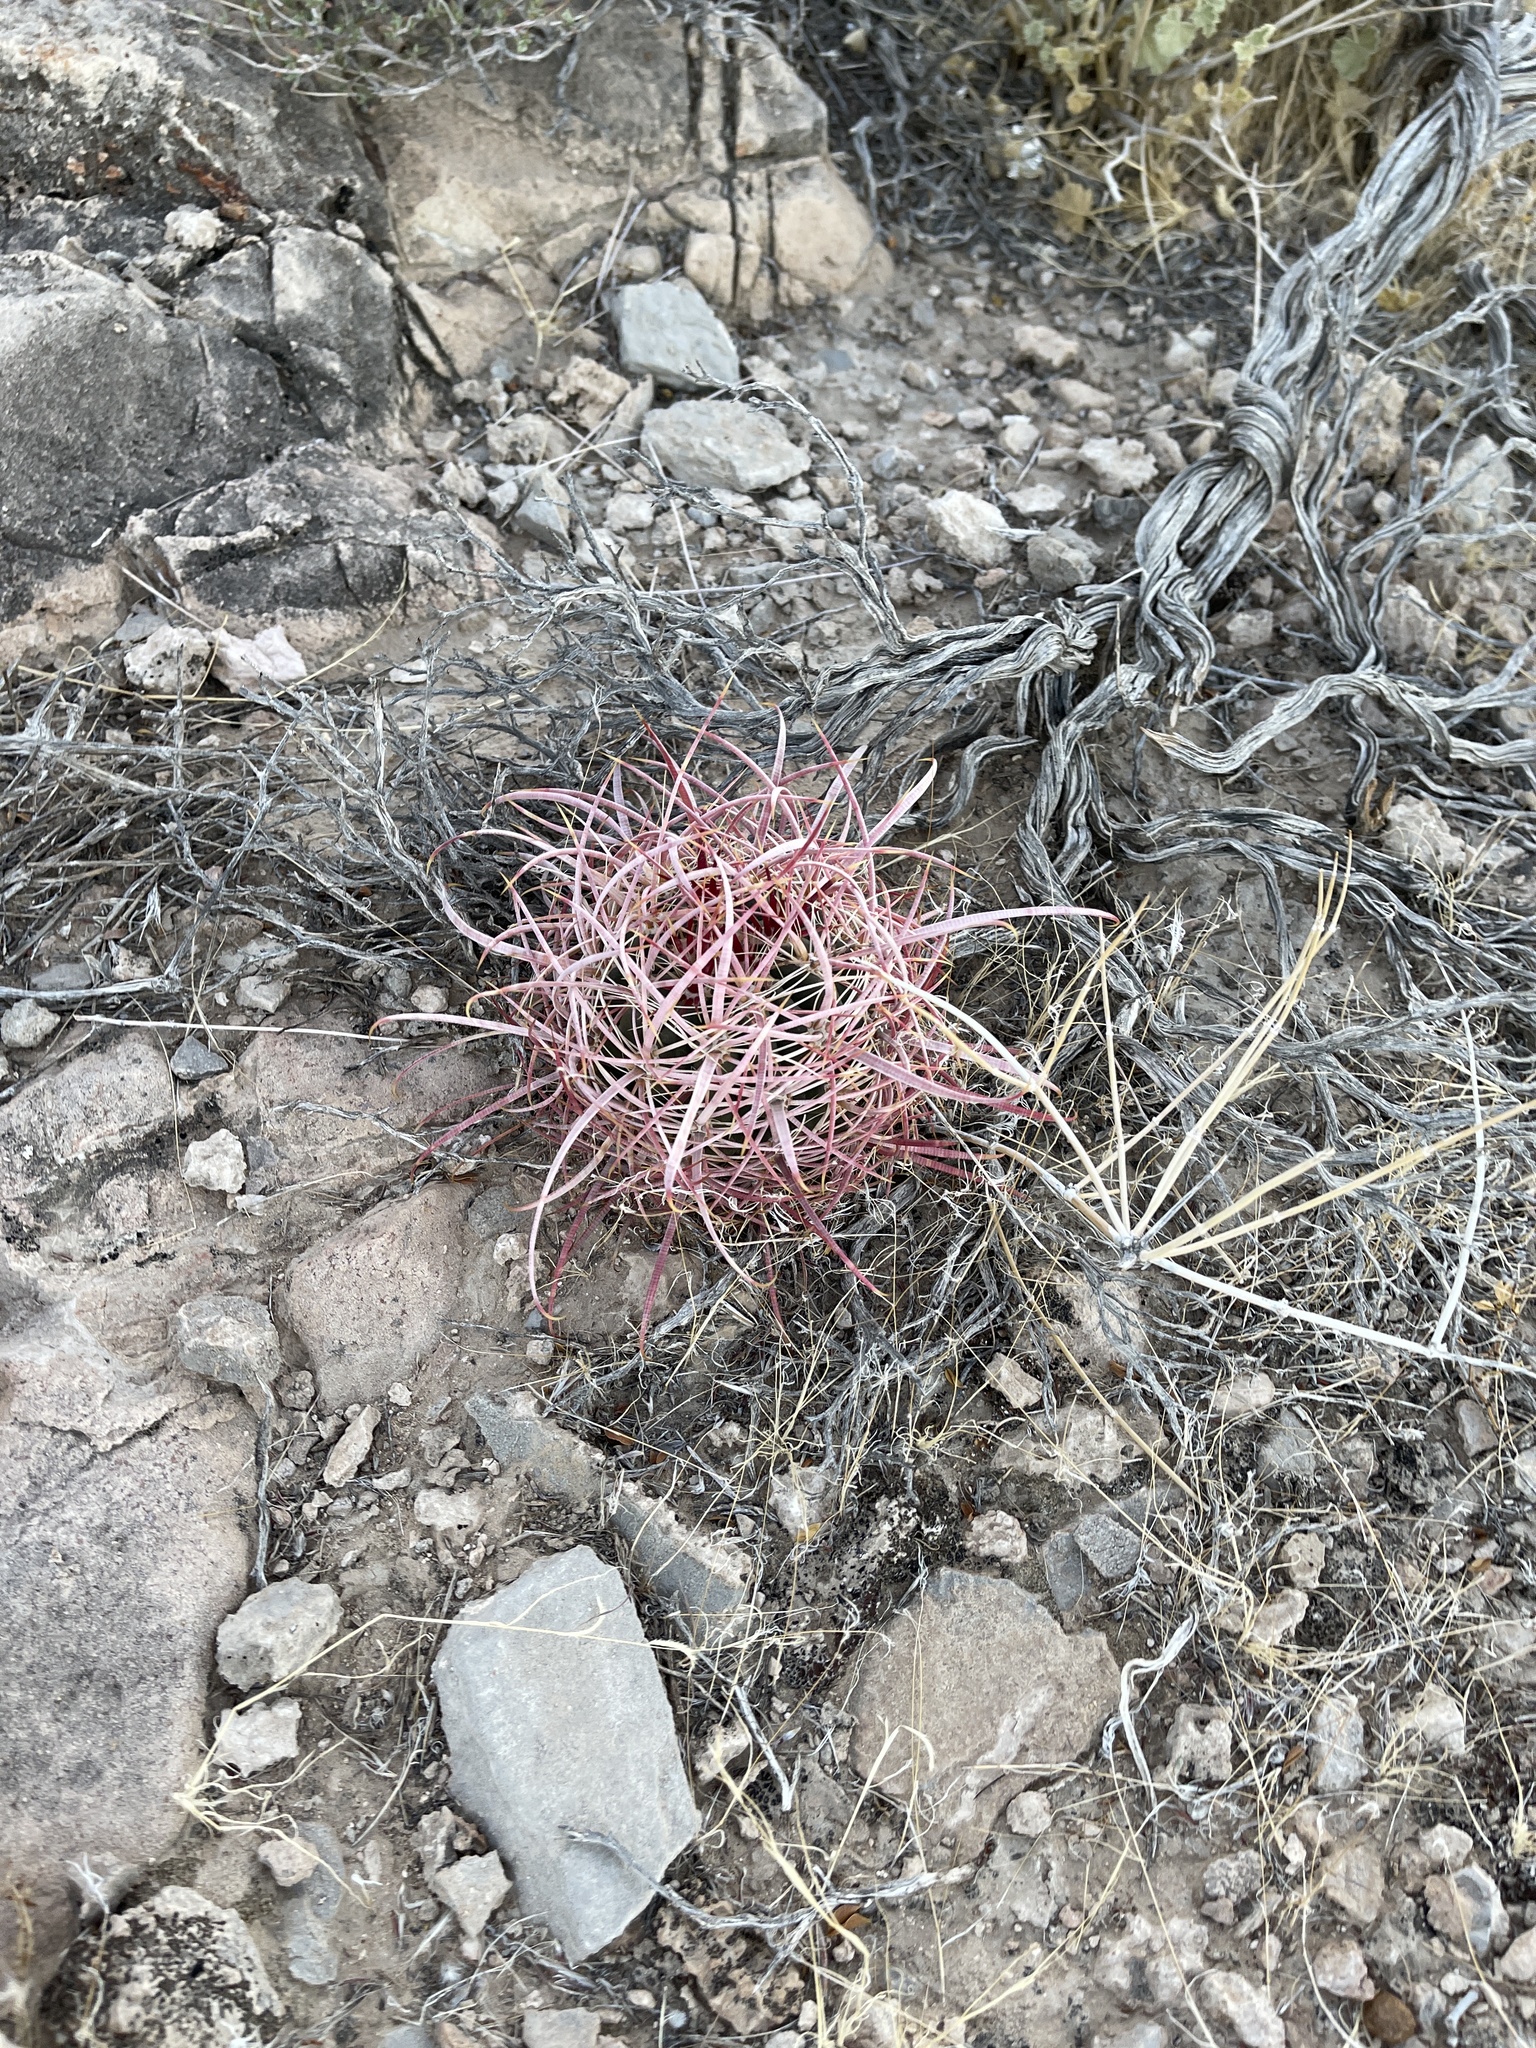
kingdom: Plantae
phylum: Tracheophyta
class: Magnoliopsida
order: Caryophyllales
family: Cactaceae
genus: Ferocactus
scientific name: Ferocactus cylindraceus
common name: California barrel cactus
